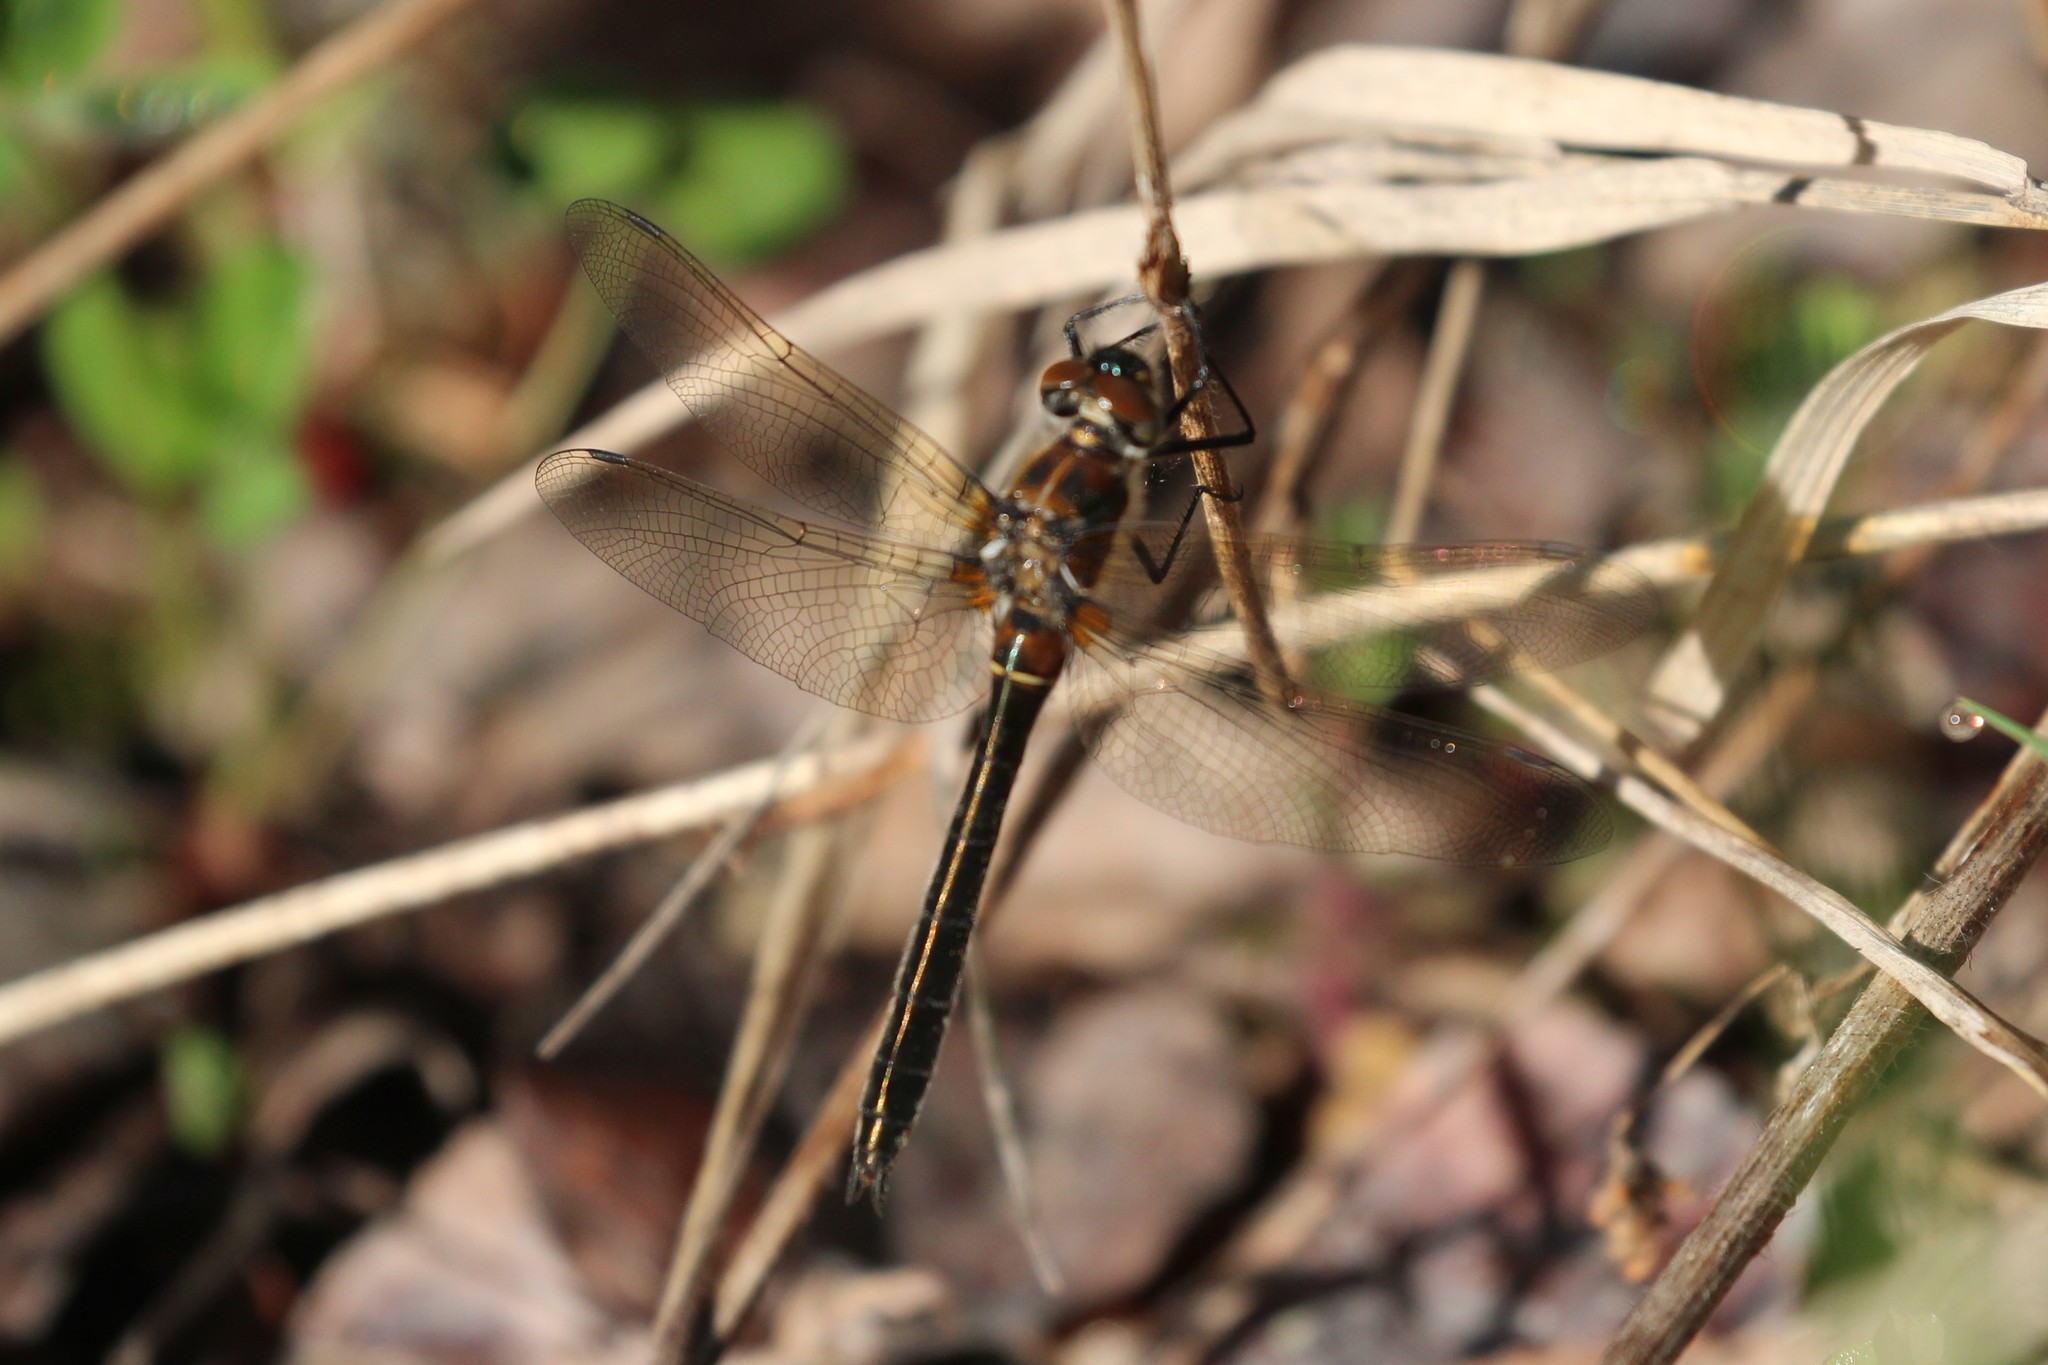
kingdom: Animalia
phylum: Arthropoda
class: Insecta
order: Odonata
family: Corduliidae
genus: Cordulia
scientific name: Cordulia shurtleffii
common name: American emerald
